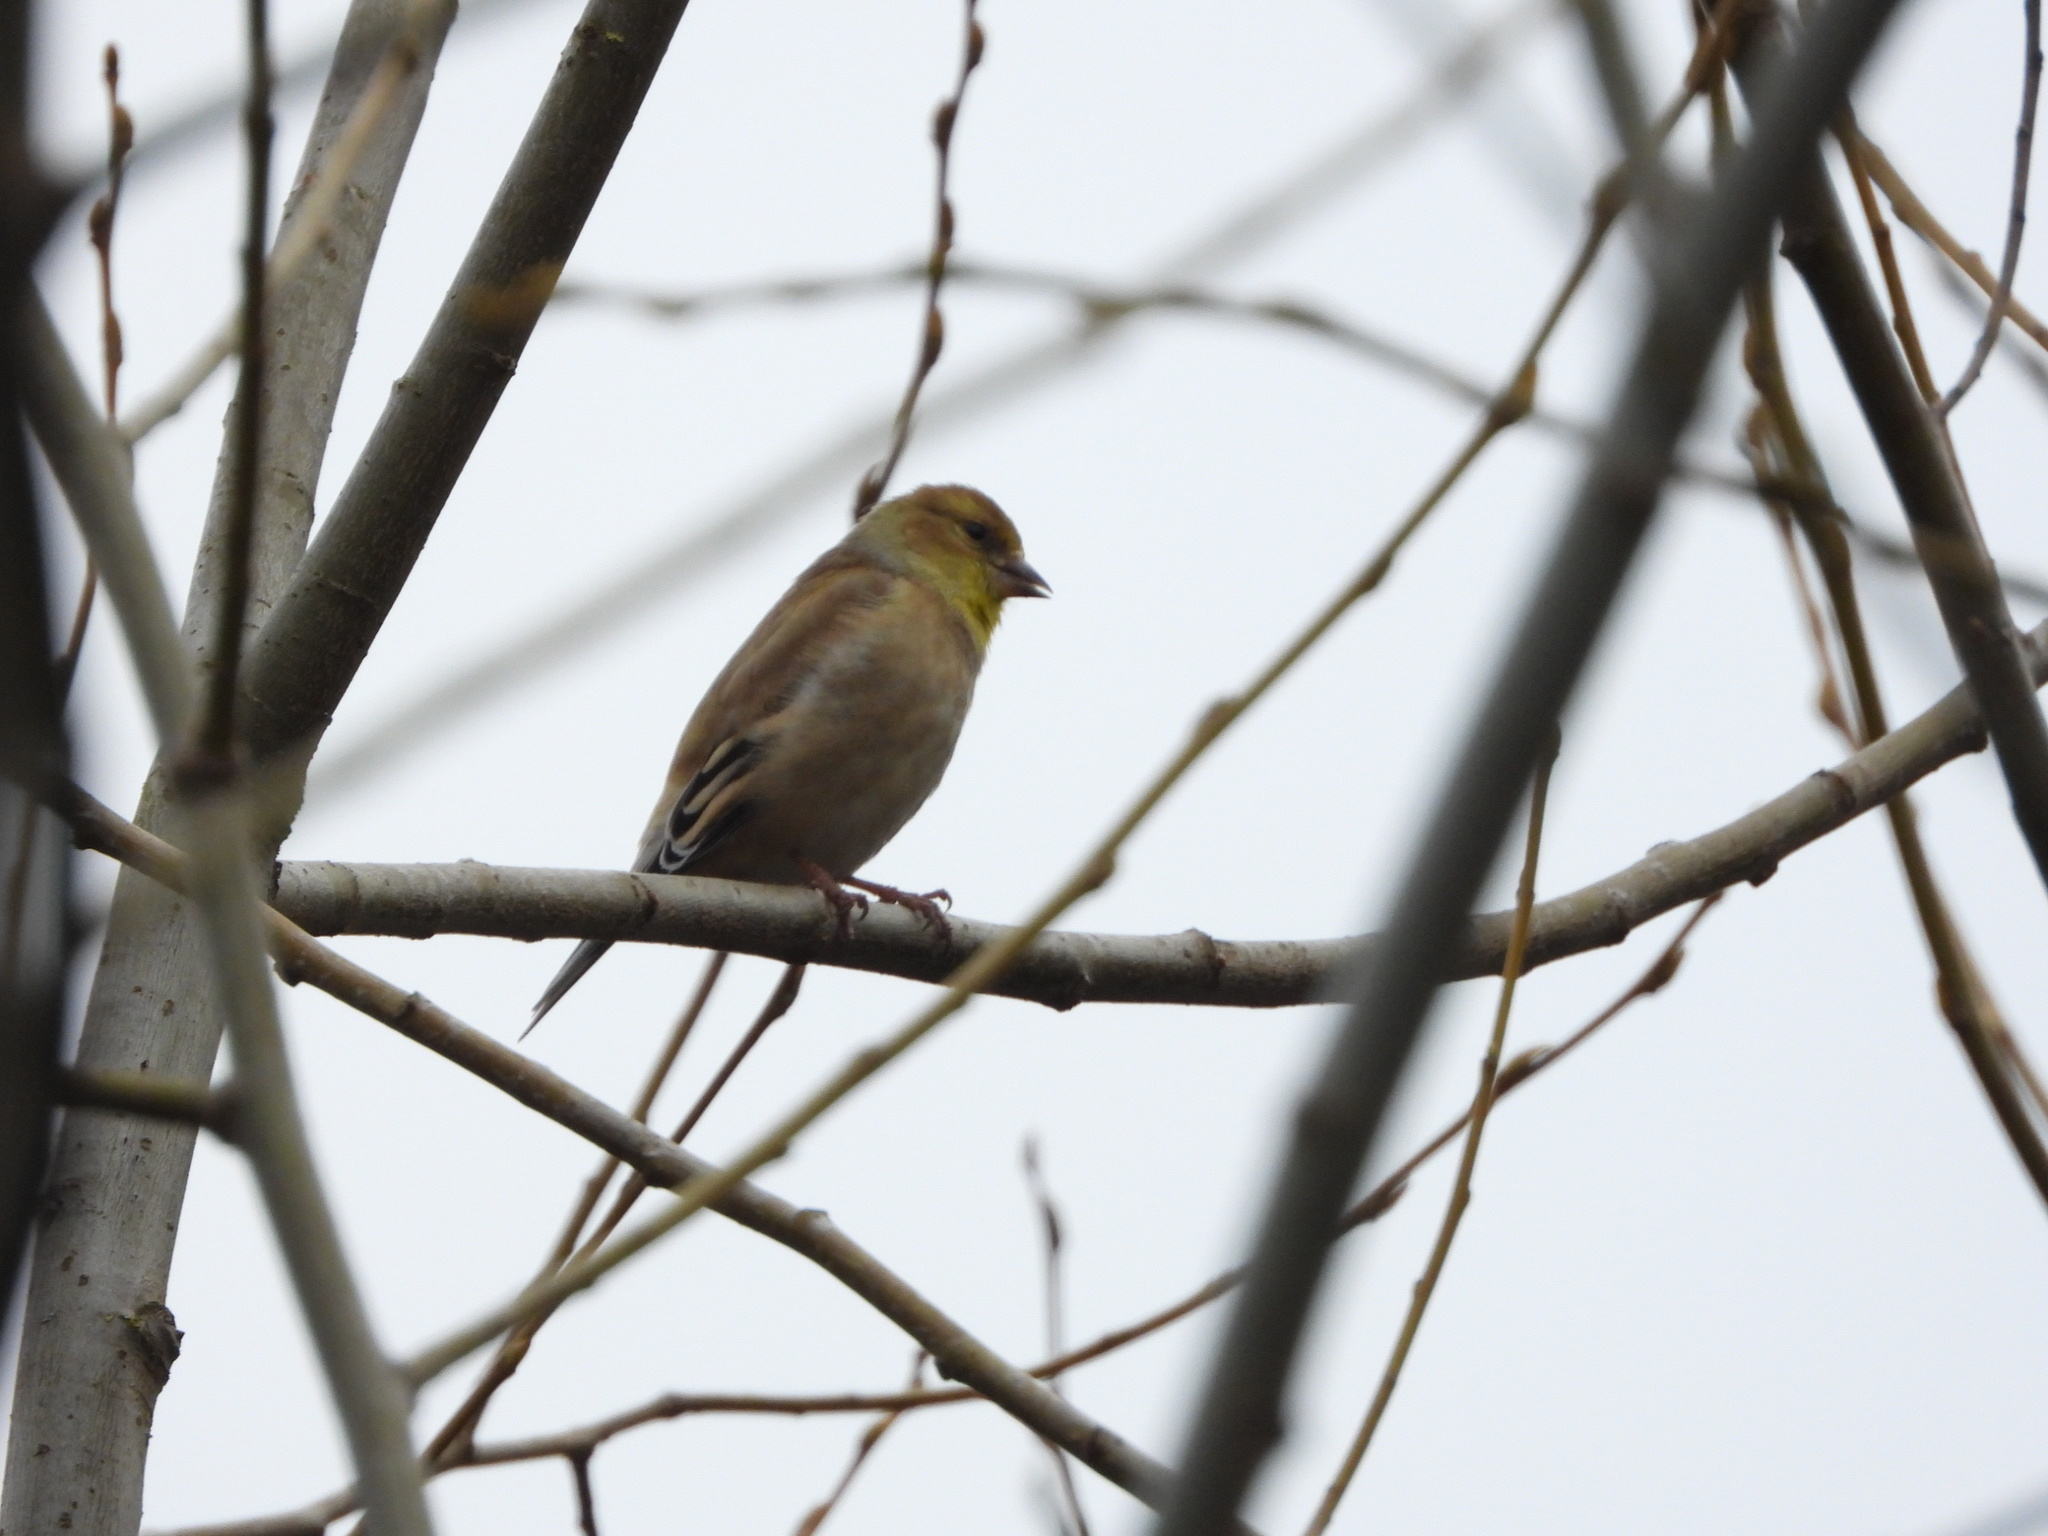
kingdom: Animalia
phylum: Chordata
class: Aves
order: Passeriformes
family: Fringillidae
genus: Spinus
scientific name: Spinus tristis
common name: American goldfinch
